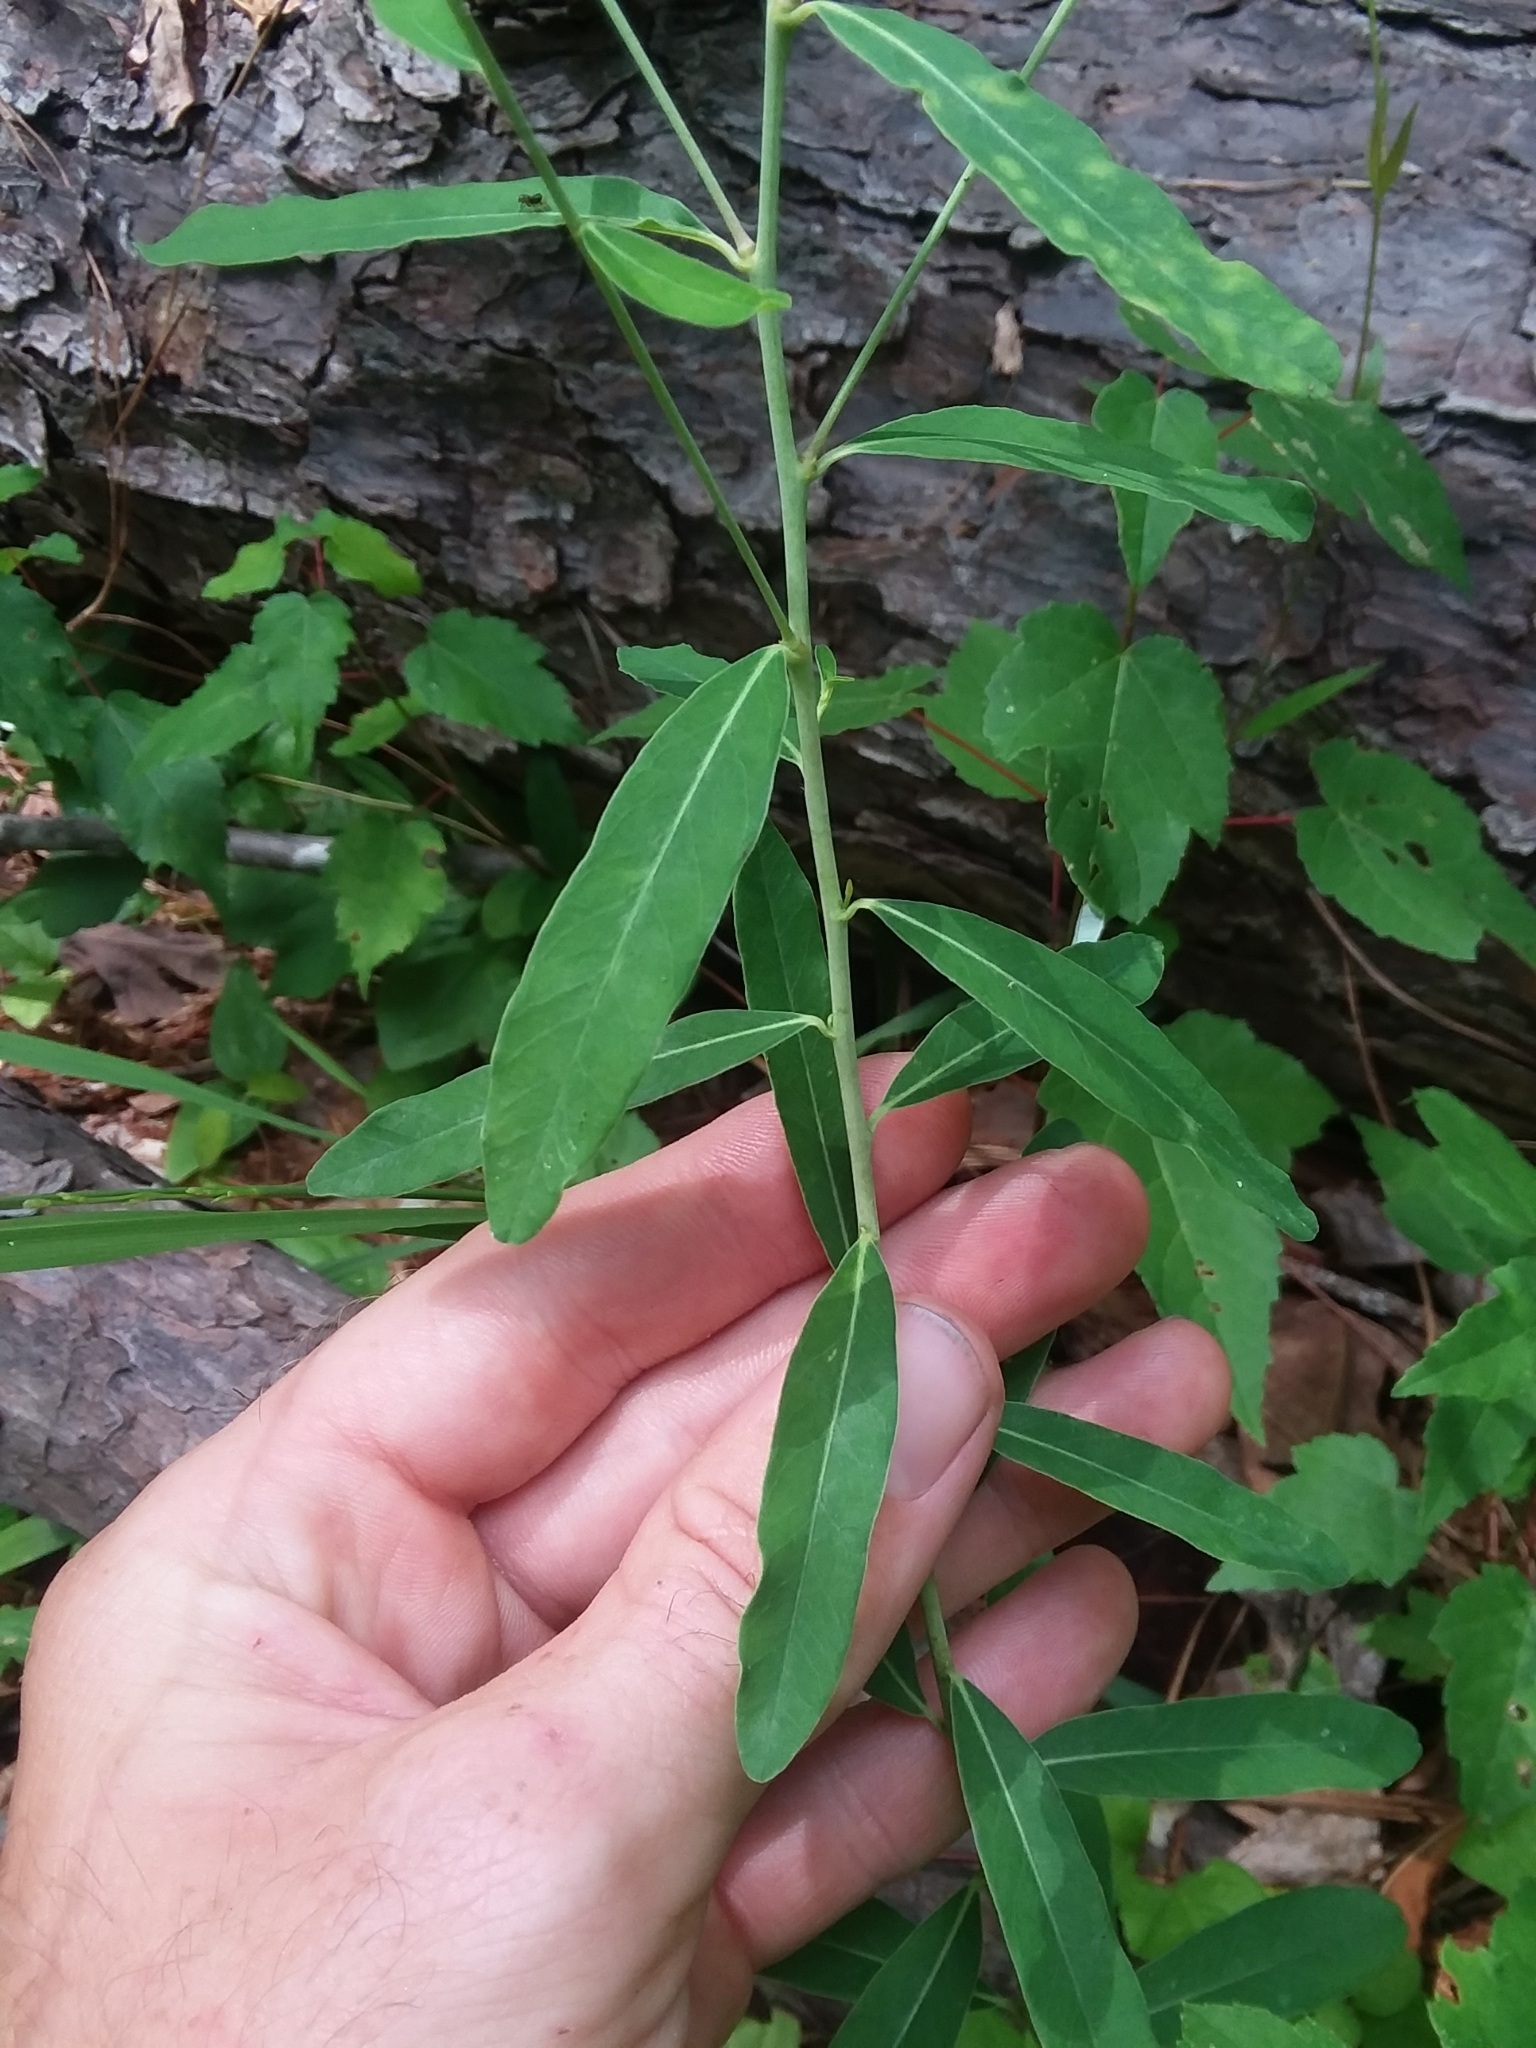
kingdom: Plantae
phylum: Tracheophyta
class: Magnoliopsida
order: Malpighiales
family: Euphorbiaceae
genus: Euphorbia
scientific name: Euphorbia corollata
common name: Flowering spurge
